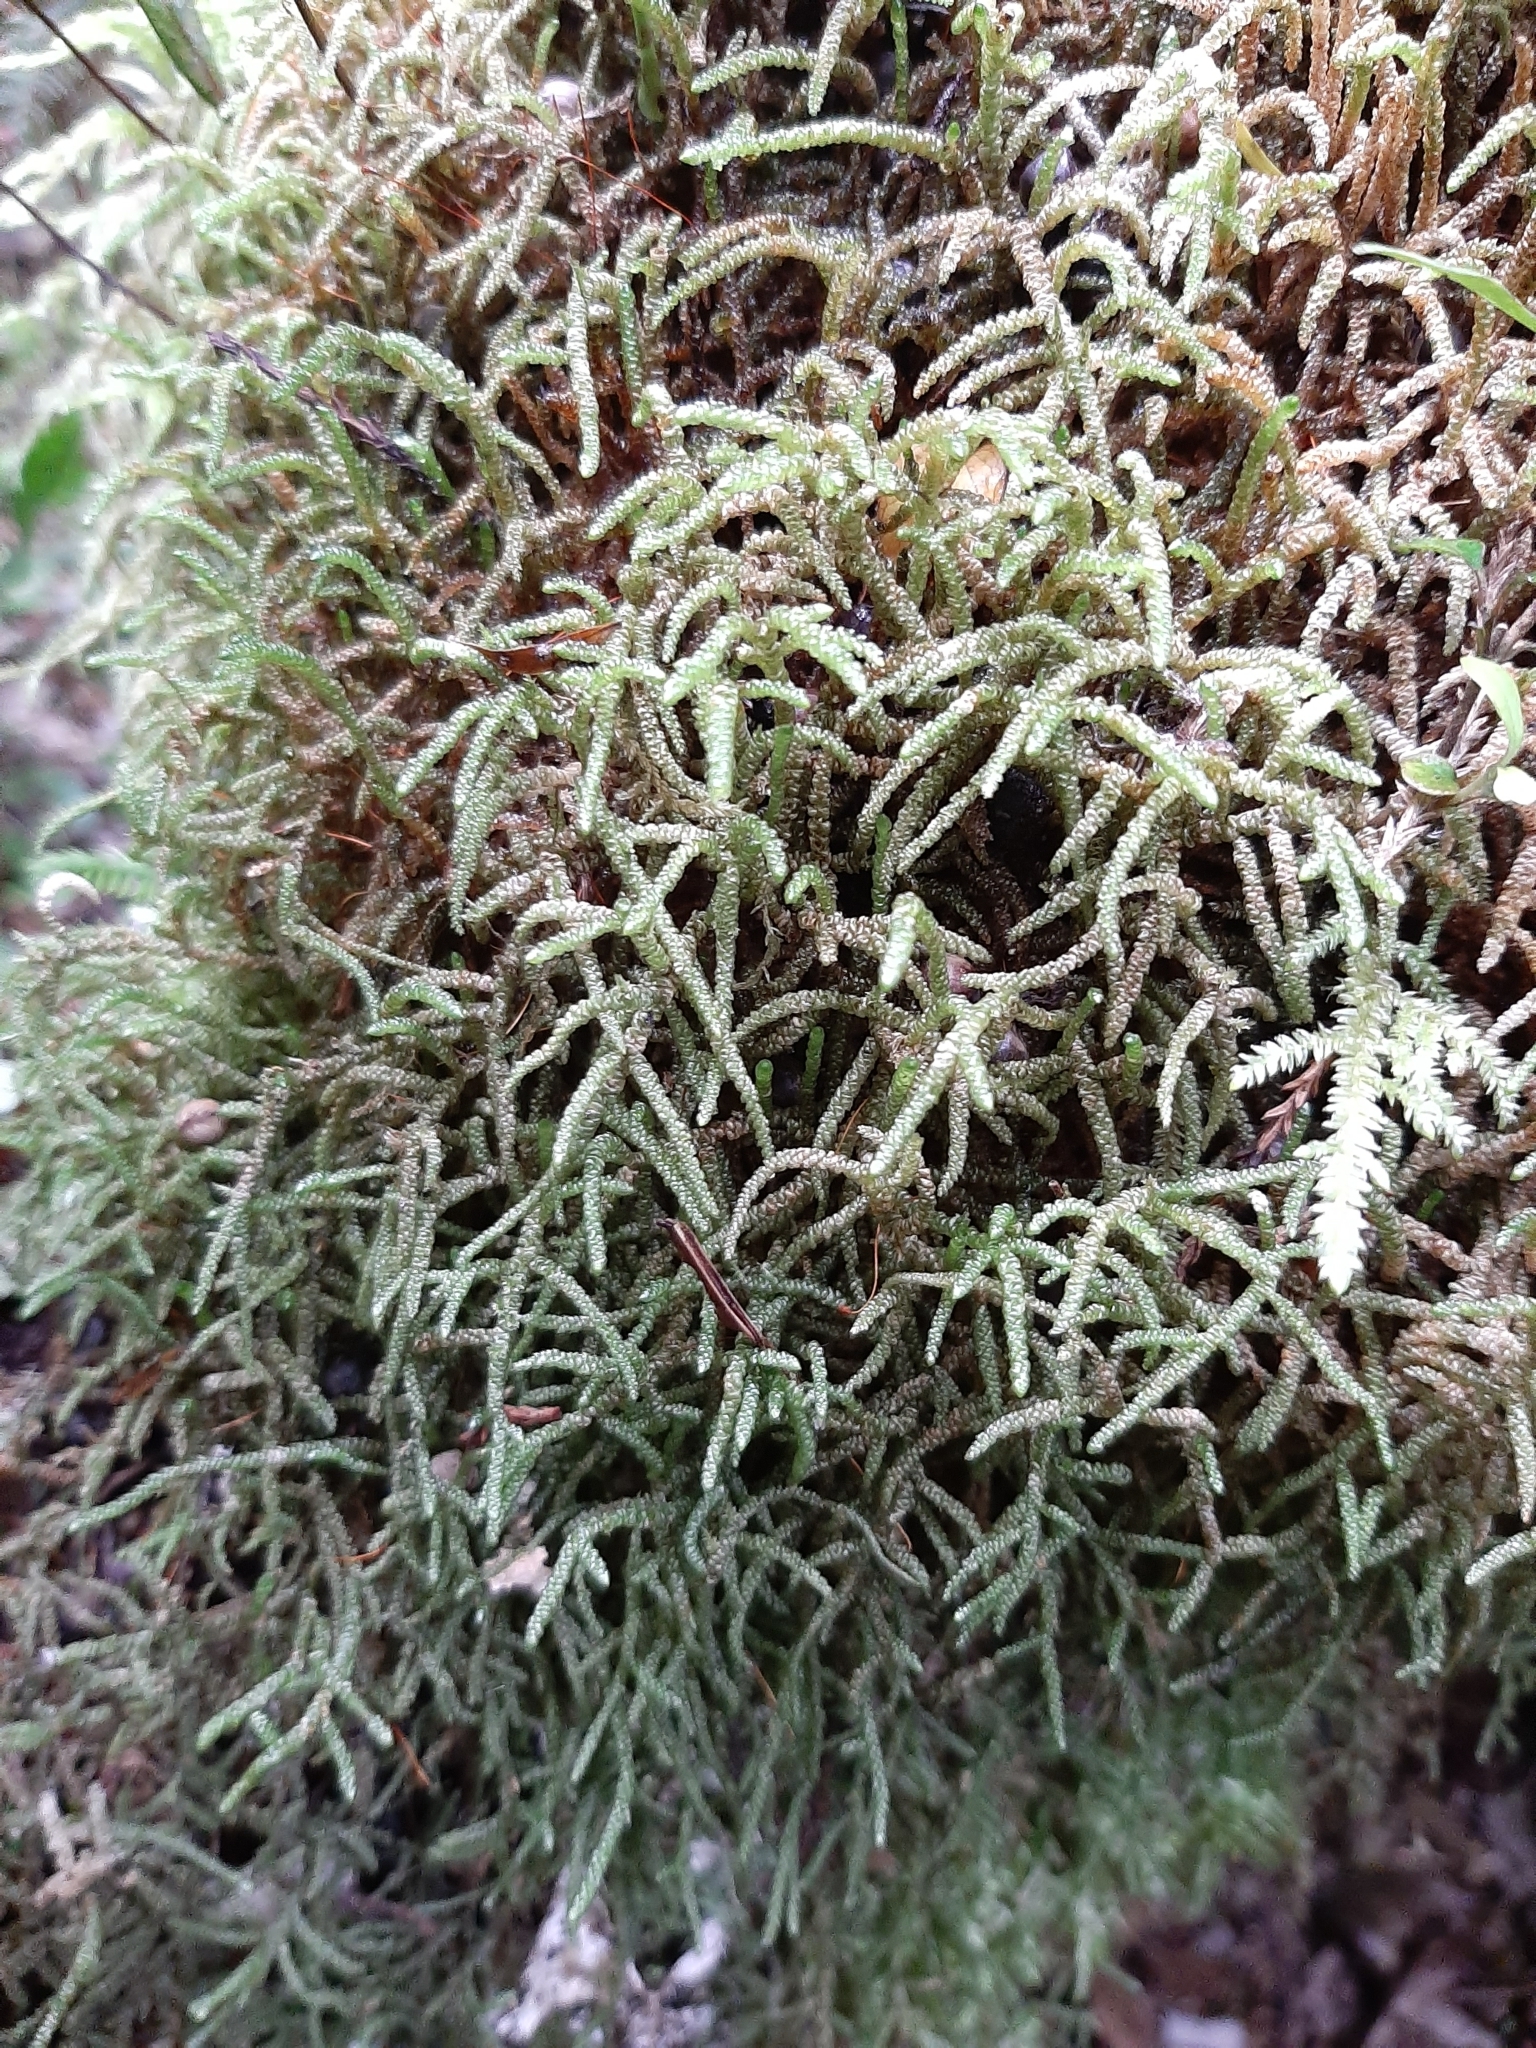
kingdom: Plantae
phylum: Bryophyta
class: Bryopsida
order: Hypnales
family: Lembophyllaceae
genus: Lembophyllum
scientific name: Lembophyllum divulsum
